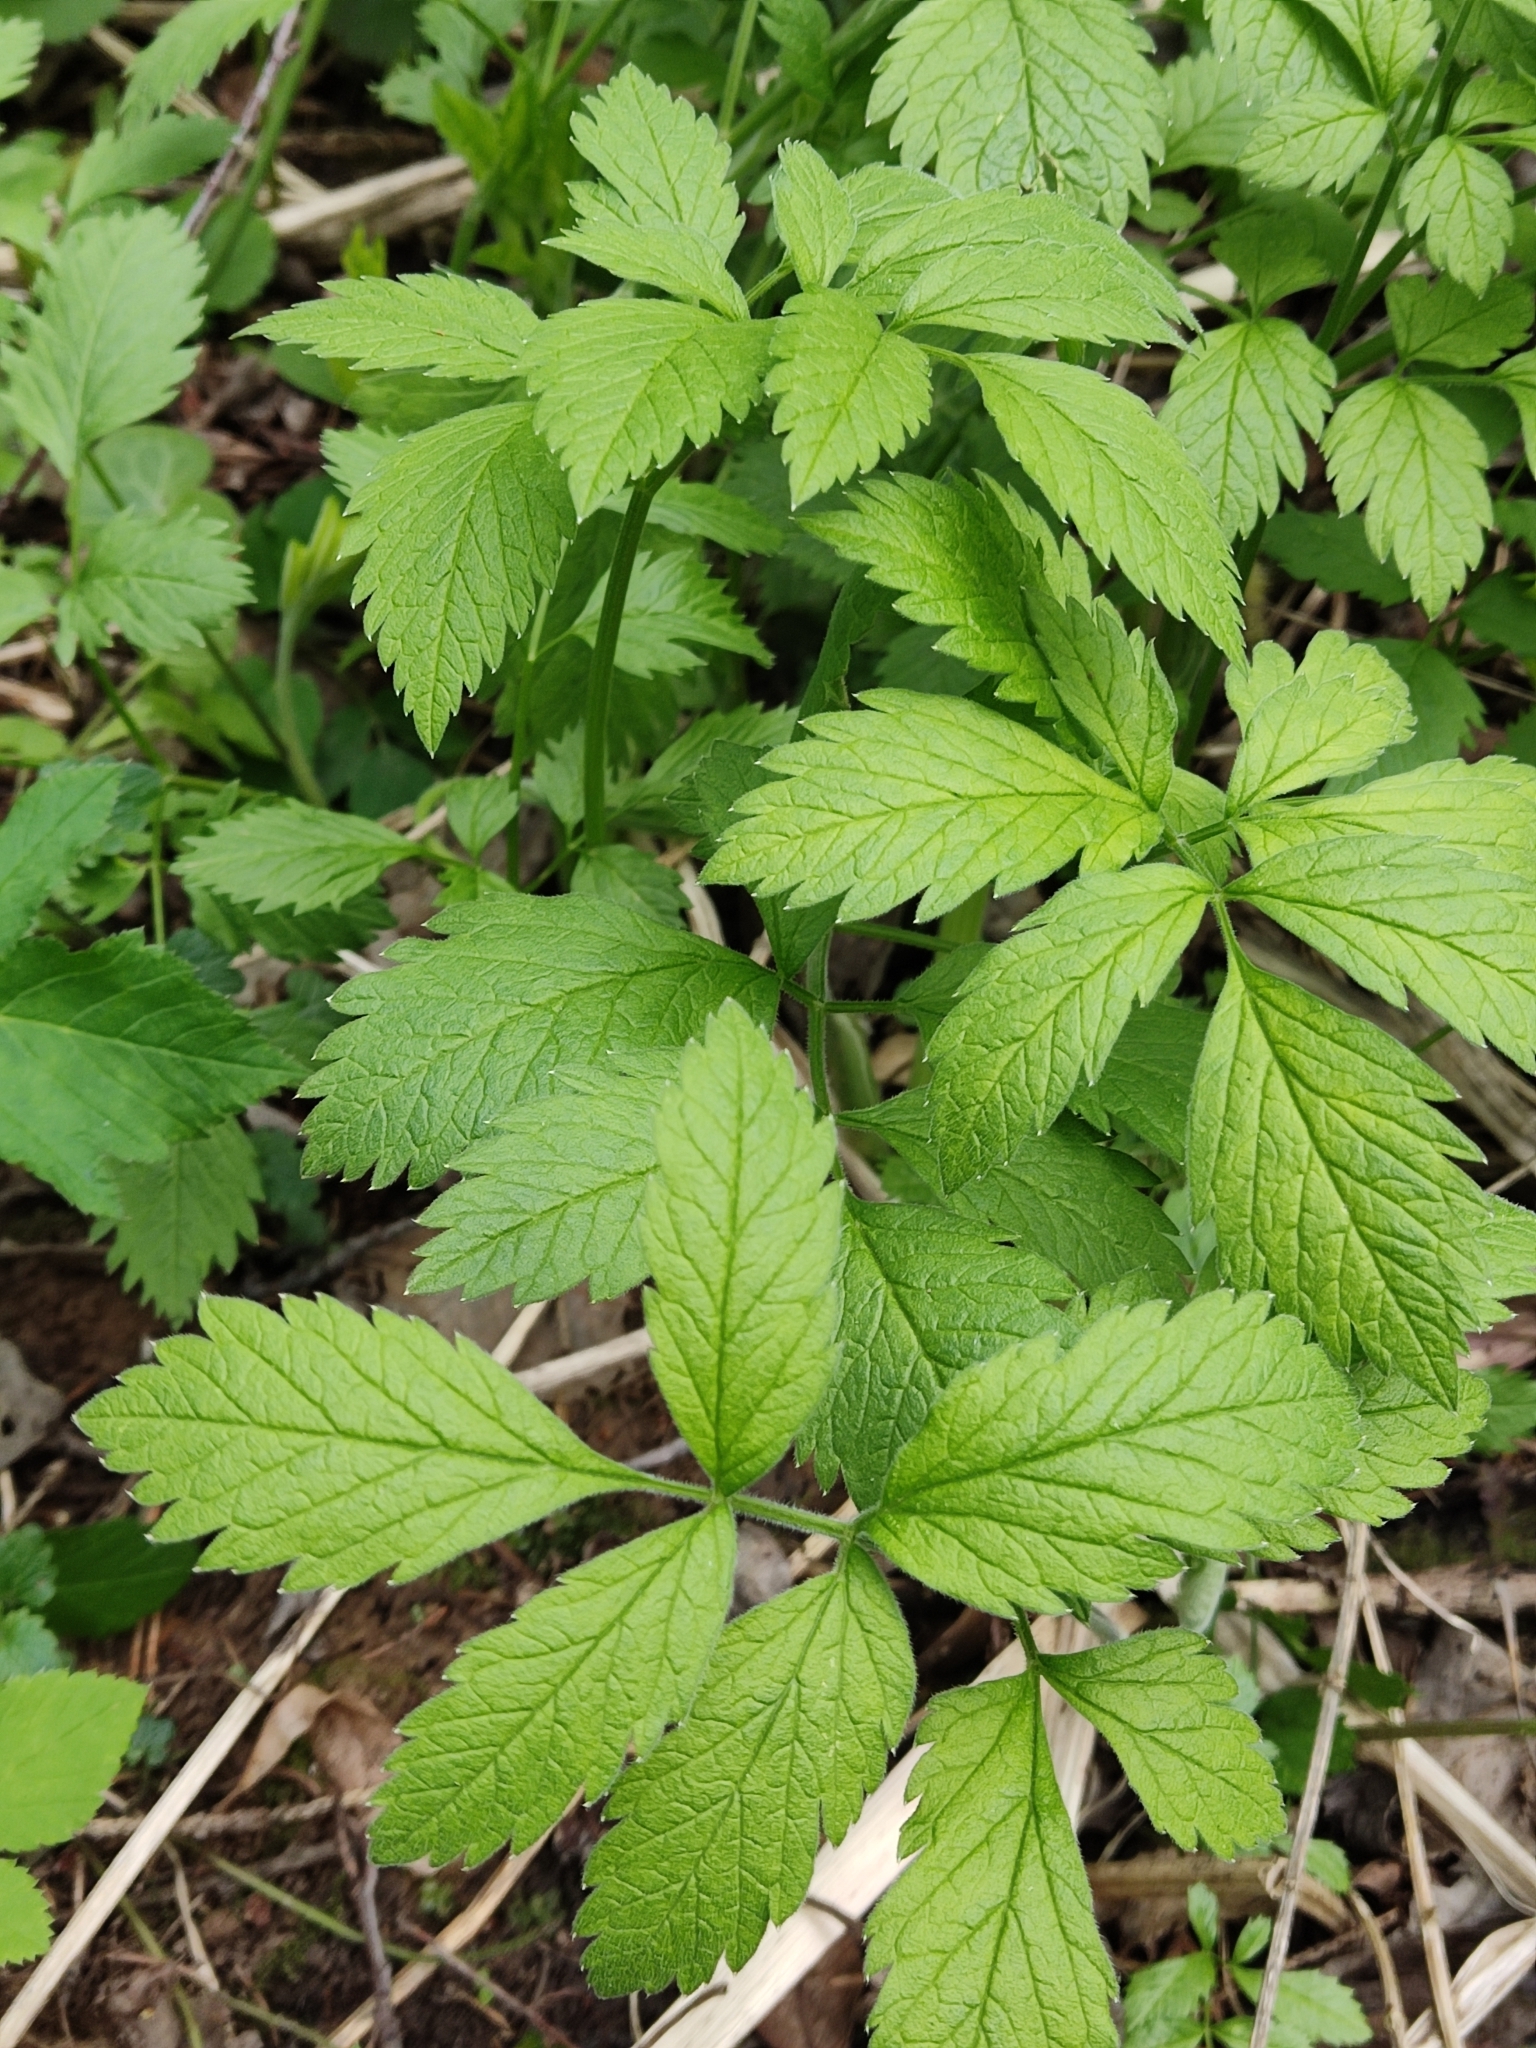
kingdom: Plantae
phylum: Tracheophyta
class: Magnoliopsida
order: Apiales
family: Apiaceae
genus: Chaerophyllum
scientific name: Chaerophyllum aromaticum
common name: Broadleaf chervil
